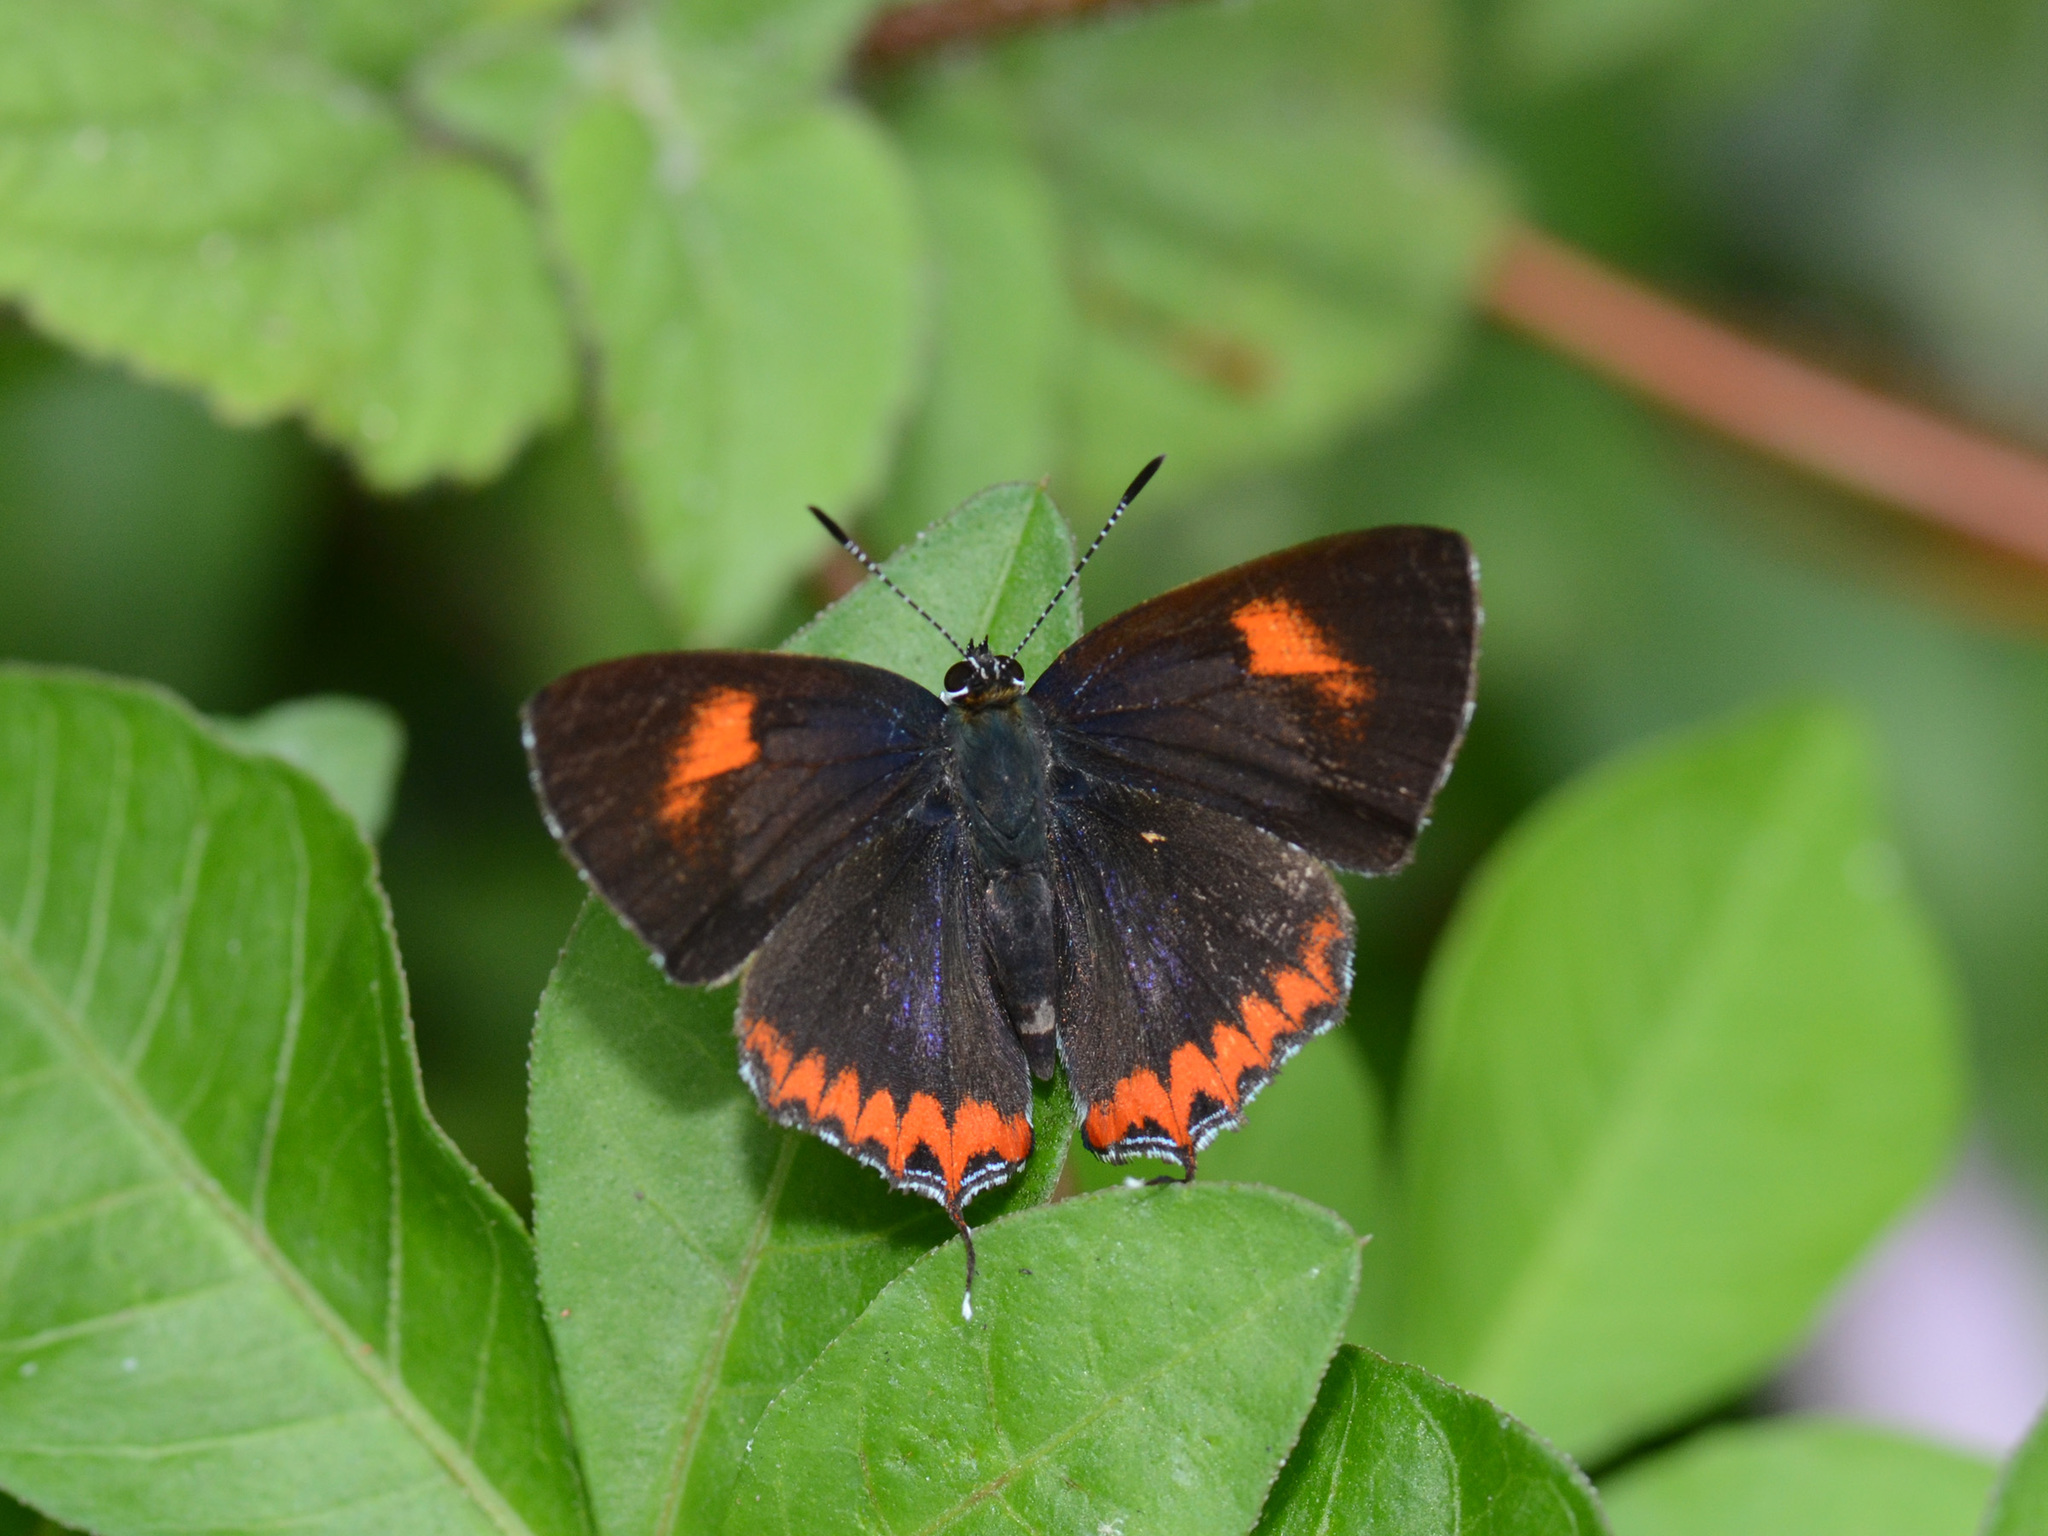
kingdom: Animalia
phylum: Arthropoda
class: Insecta
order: Lepidoptera
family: Lycaenidae
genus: Heliophorus
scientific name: Heliophorus epicles
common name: Purple sapphire
